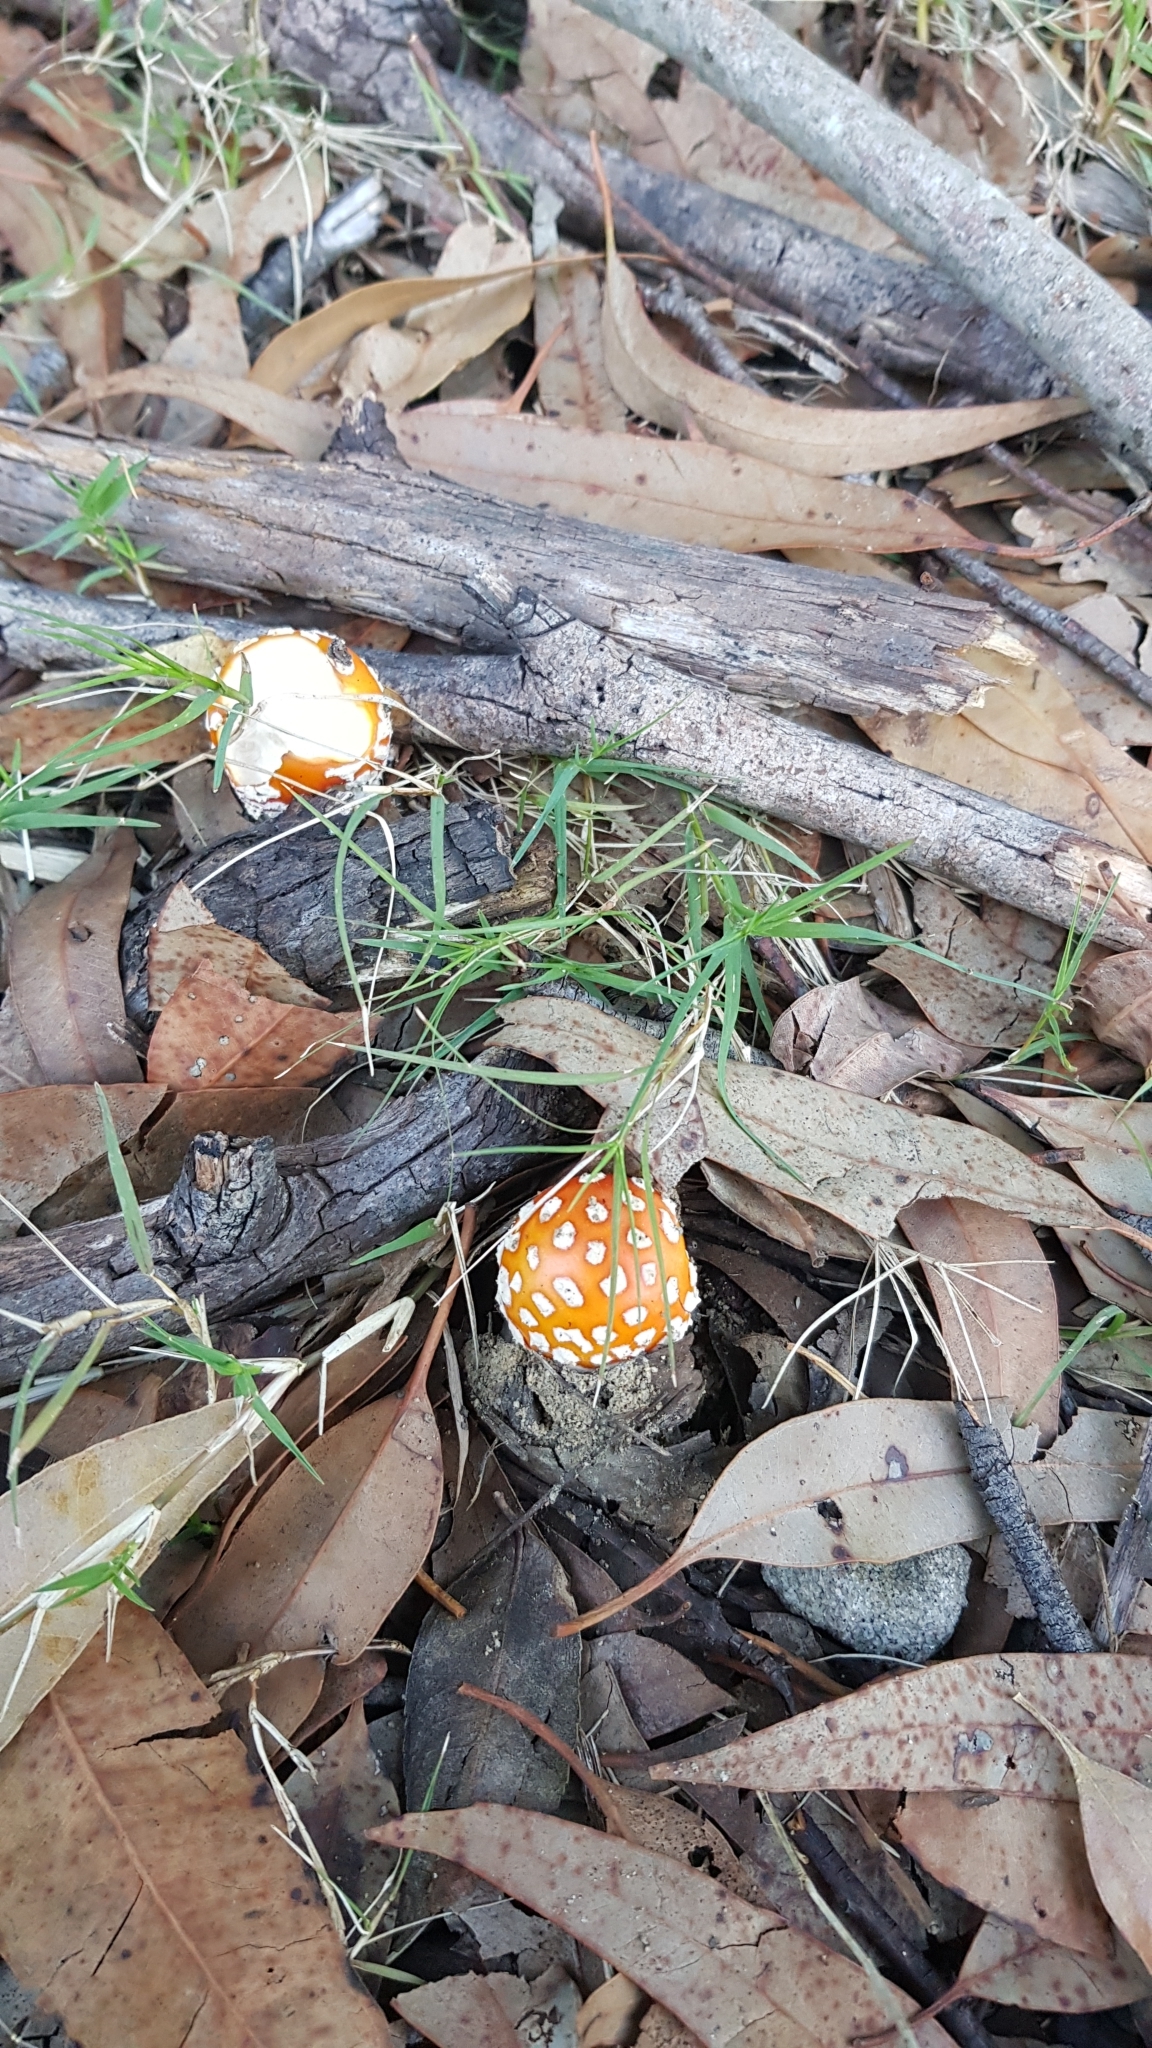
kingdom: Fungi
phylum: Basidiomycota
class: Agaricomycetes
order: Agaricales
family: Amanitaceae
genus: Amanita
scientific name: Amanita muscaria
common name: Fly agaric
